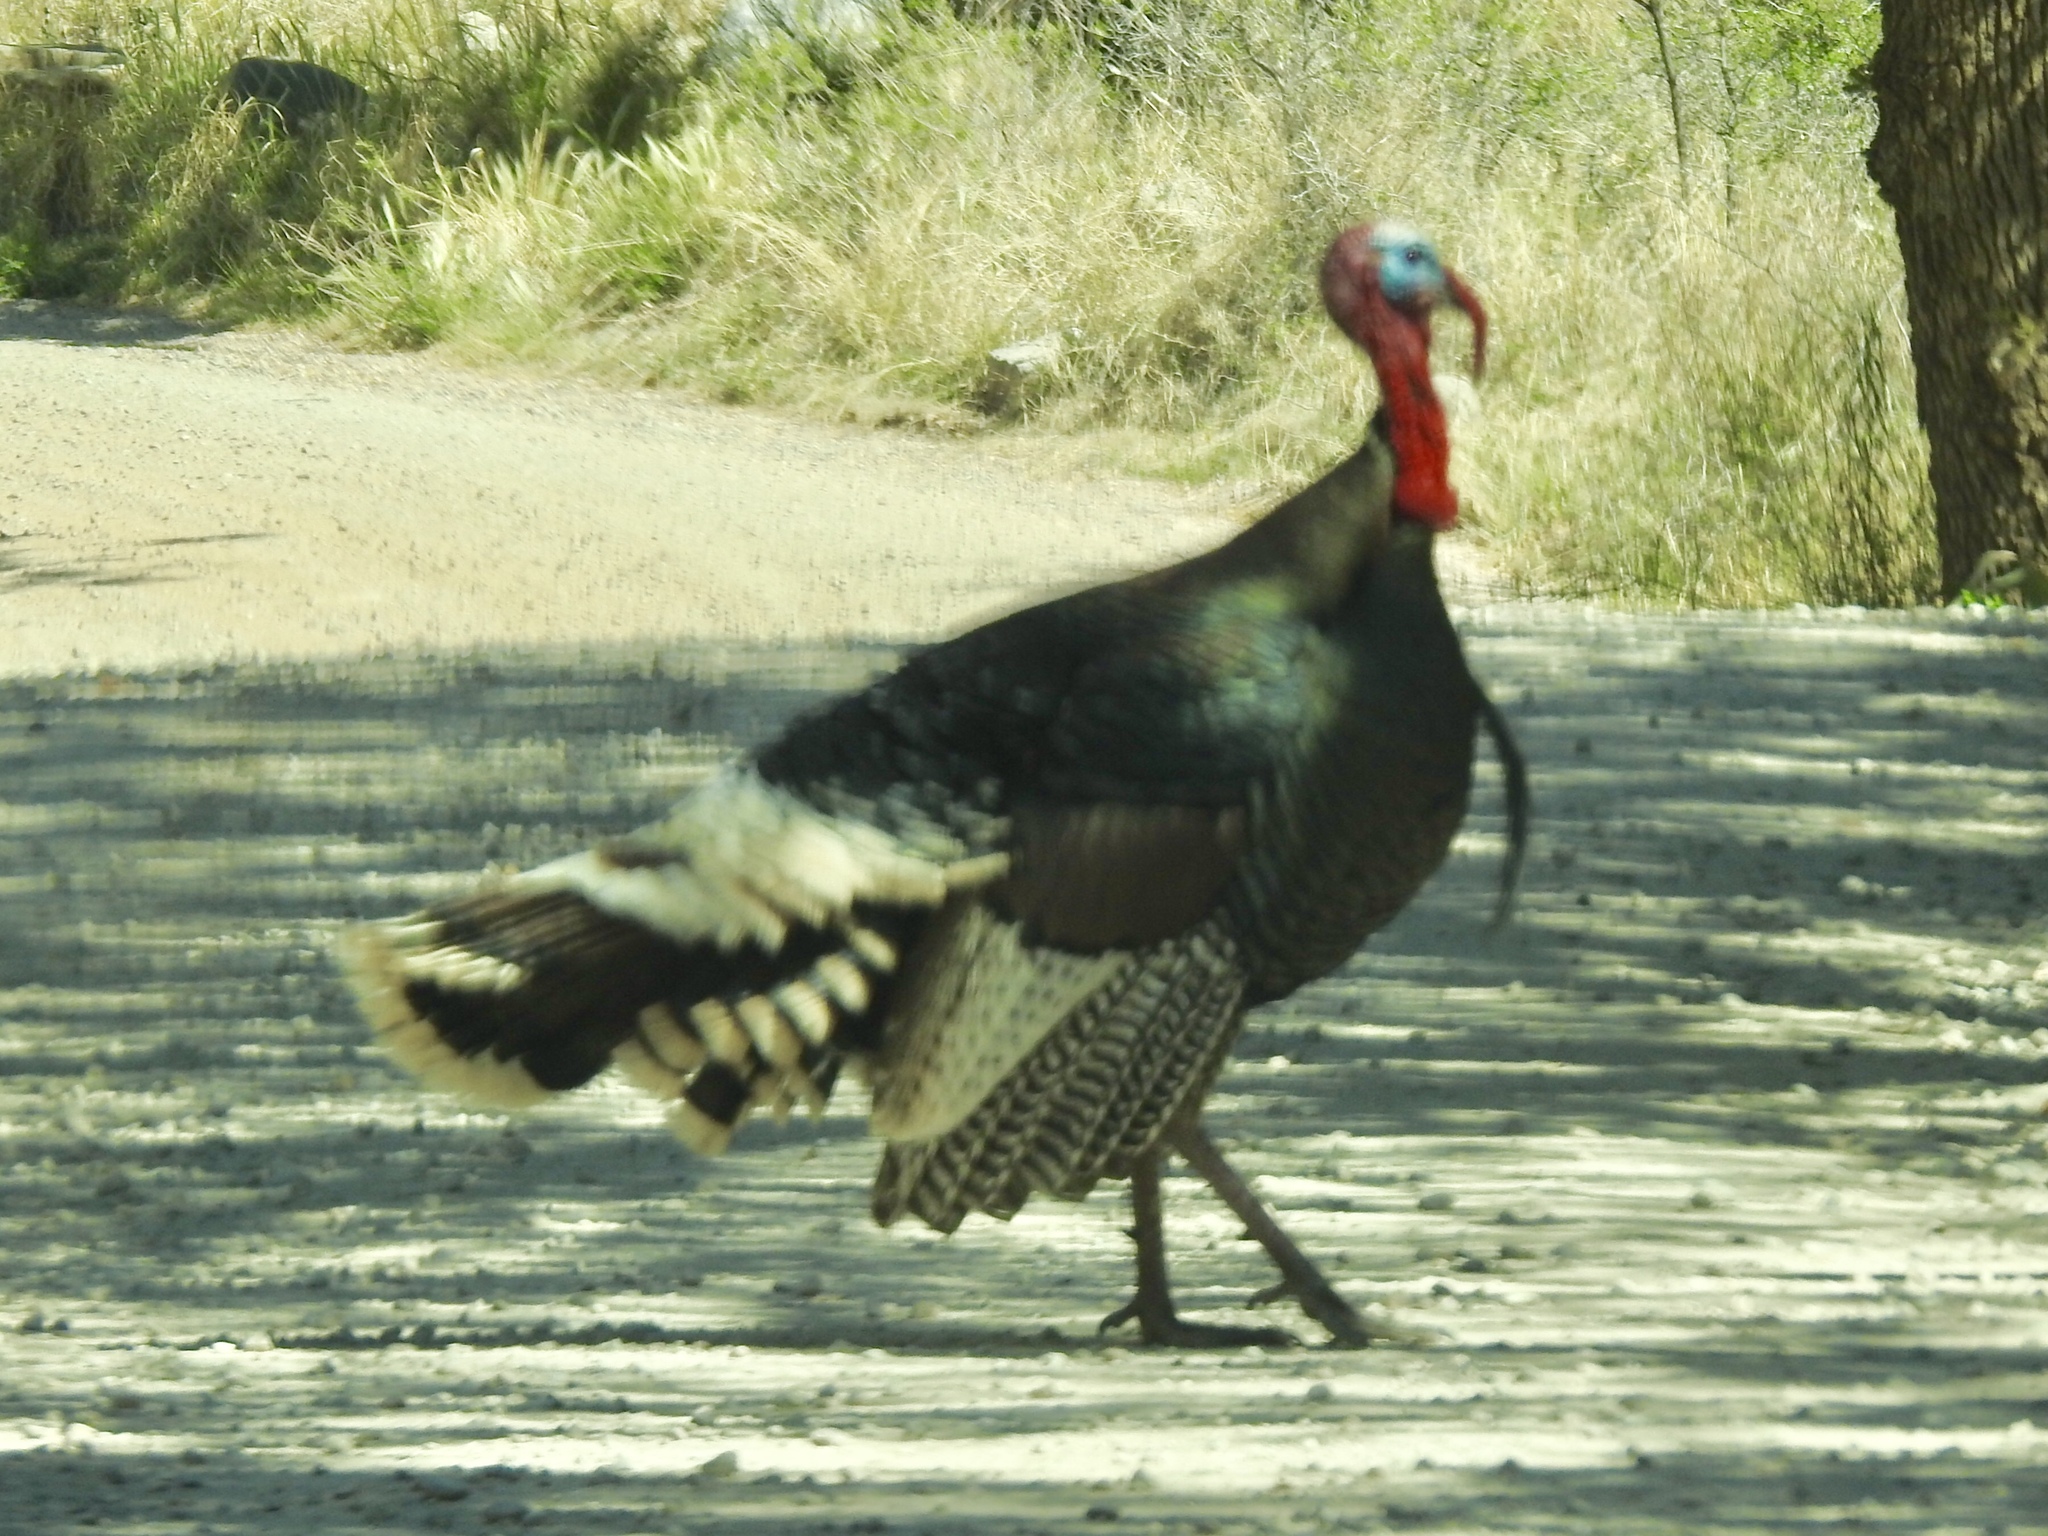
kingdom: Animalia
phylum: Chordata
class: Aves
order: Galliformes
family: Phasianidae
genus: Meleagris
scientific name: Meleagris gallopavo
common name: Wild turkey
